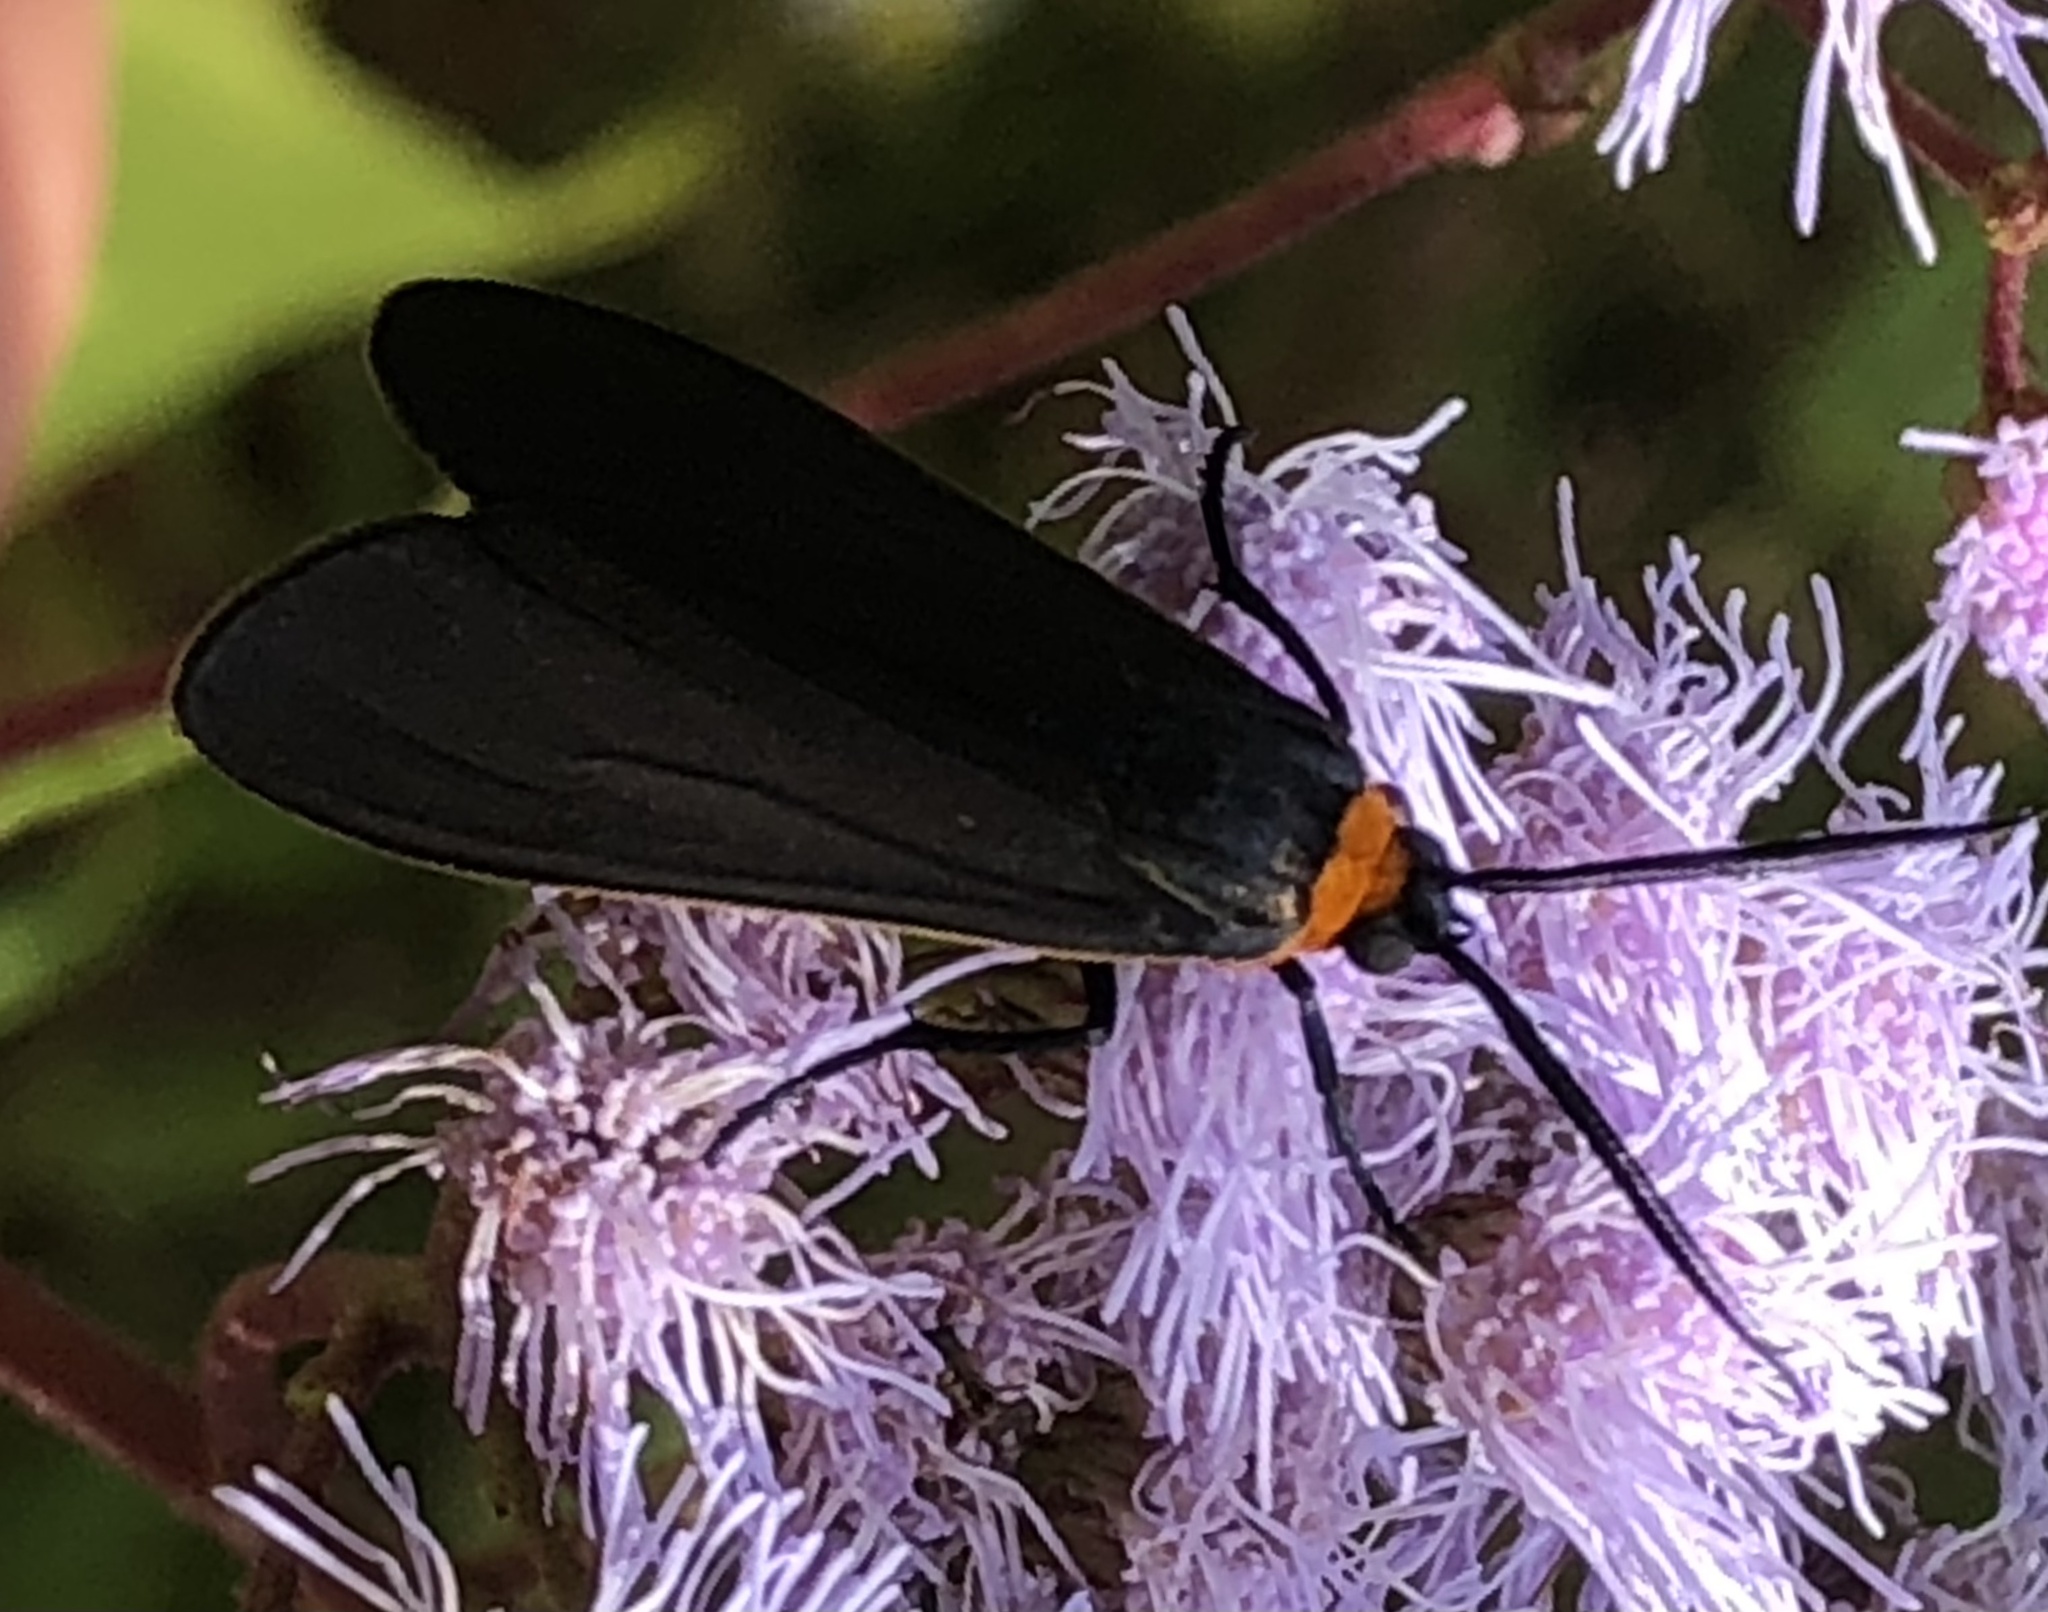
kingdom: Animalia
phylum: Arthropoda
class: Insecta
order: Lepidoptera
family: Erebidae
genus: Cisseps
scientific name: Cisseps fulvicollis
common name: Yellow-collared scape moth
